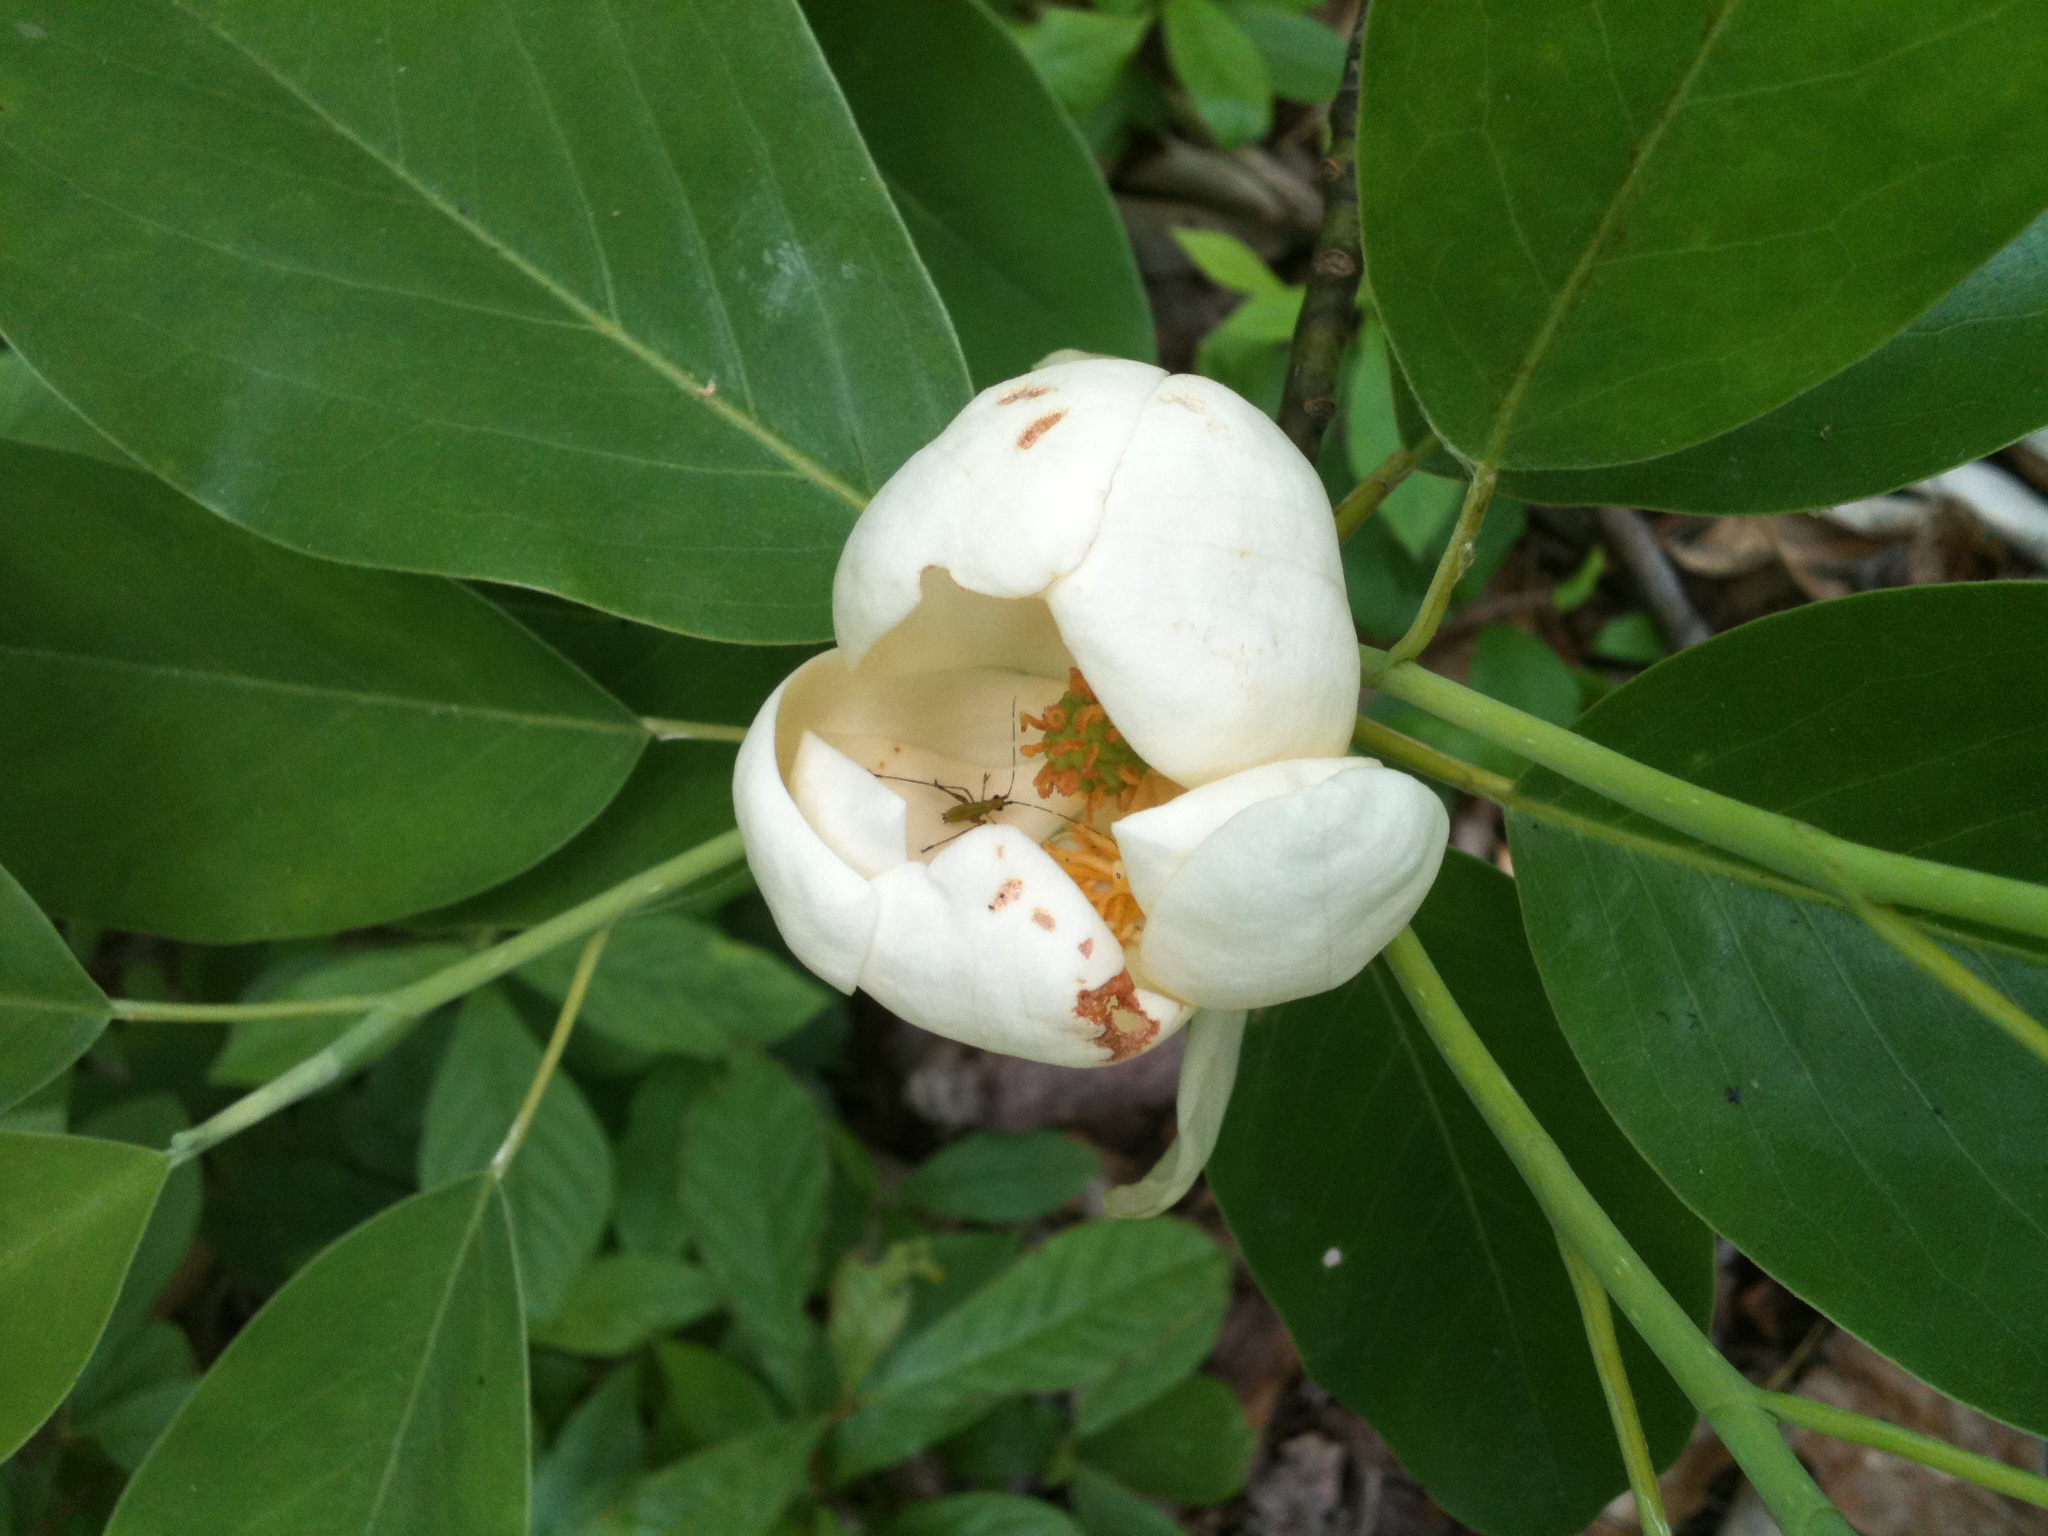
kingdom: Plantae
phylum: Tracheophyta
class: Magnoliopsida
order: Magnoliales
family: Magnoliaceae
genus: Magnolia
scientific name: Magnolia virginiana
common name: Swamp bay
